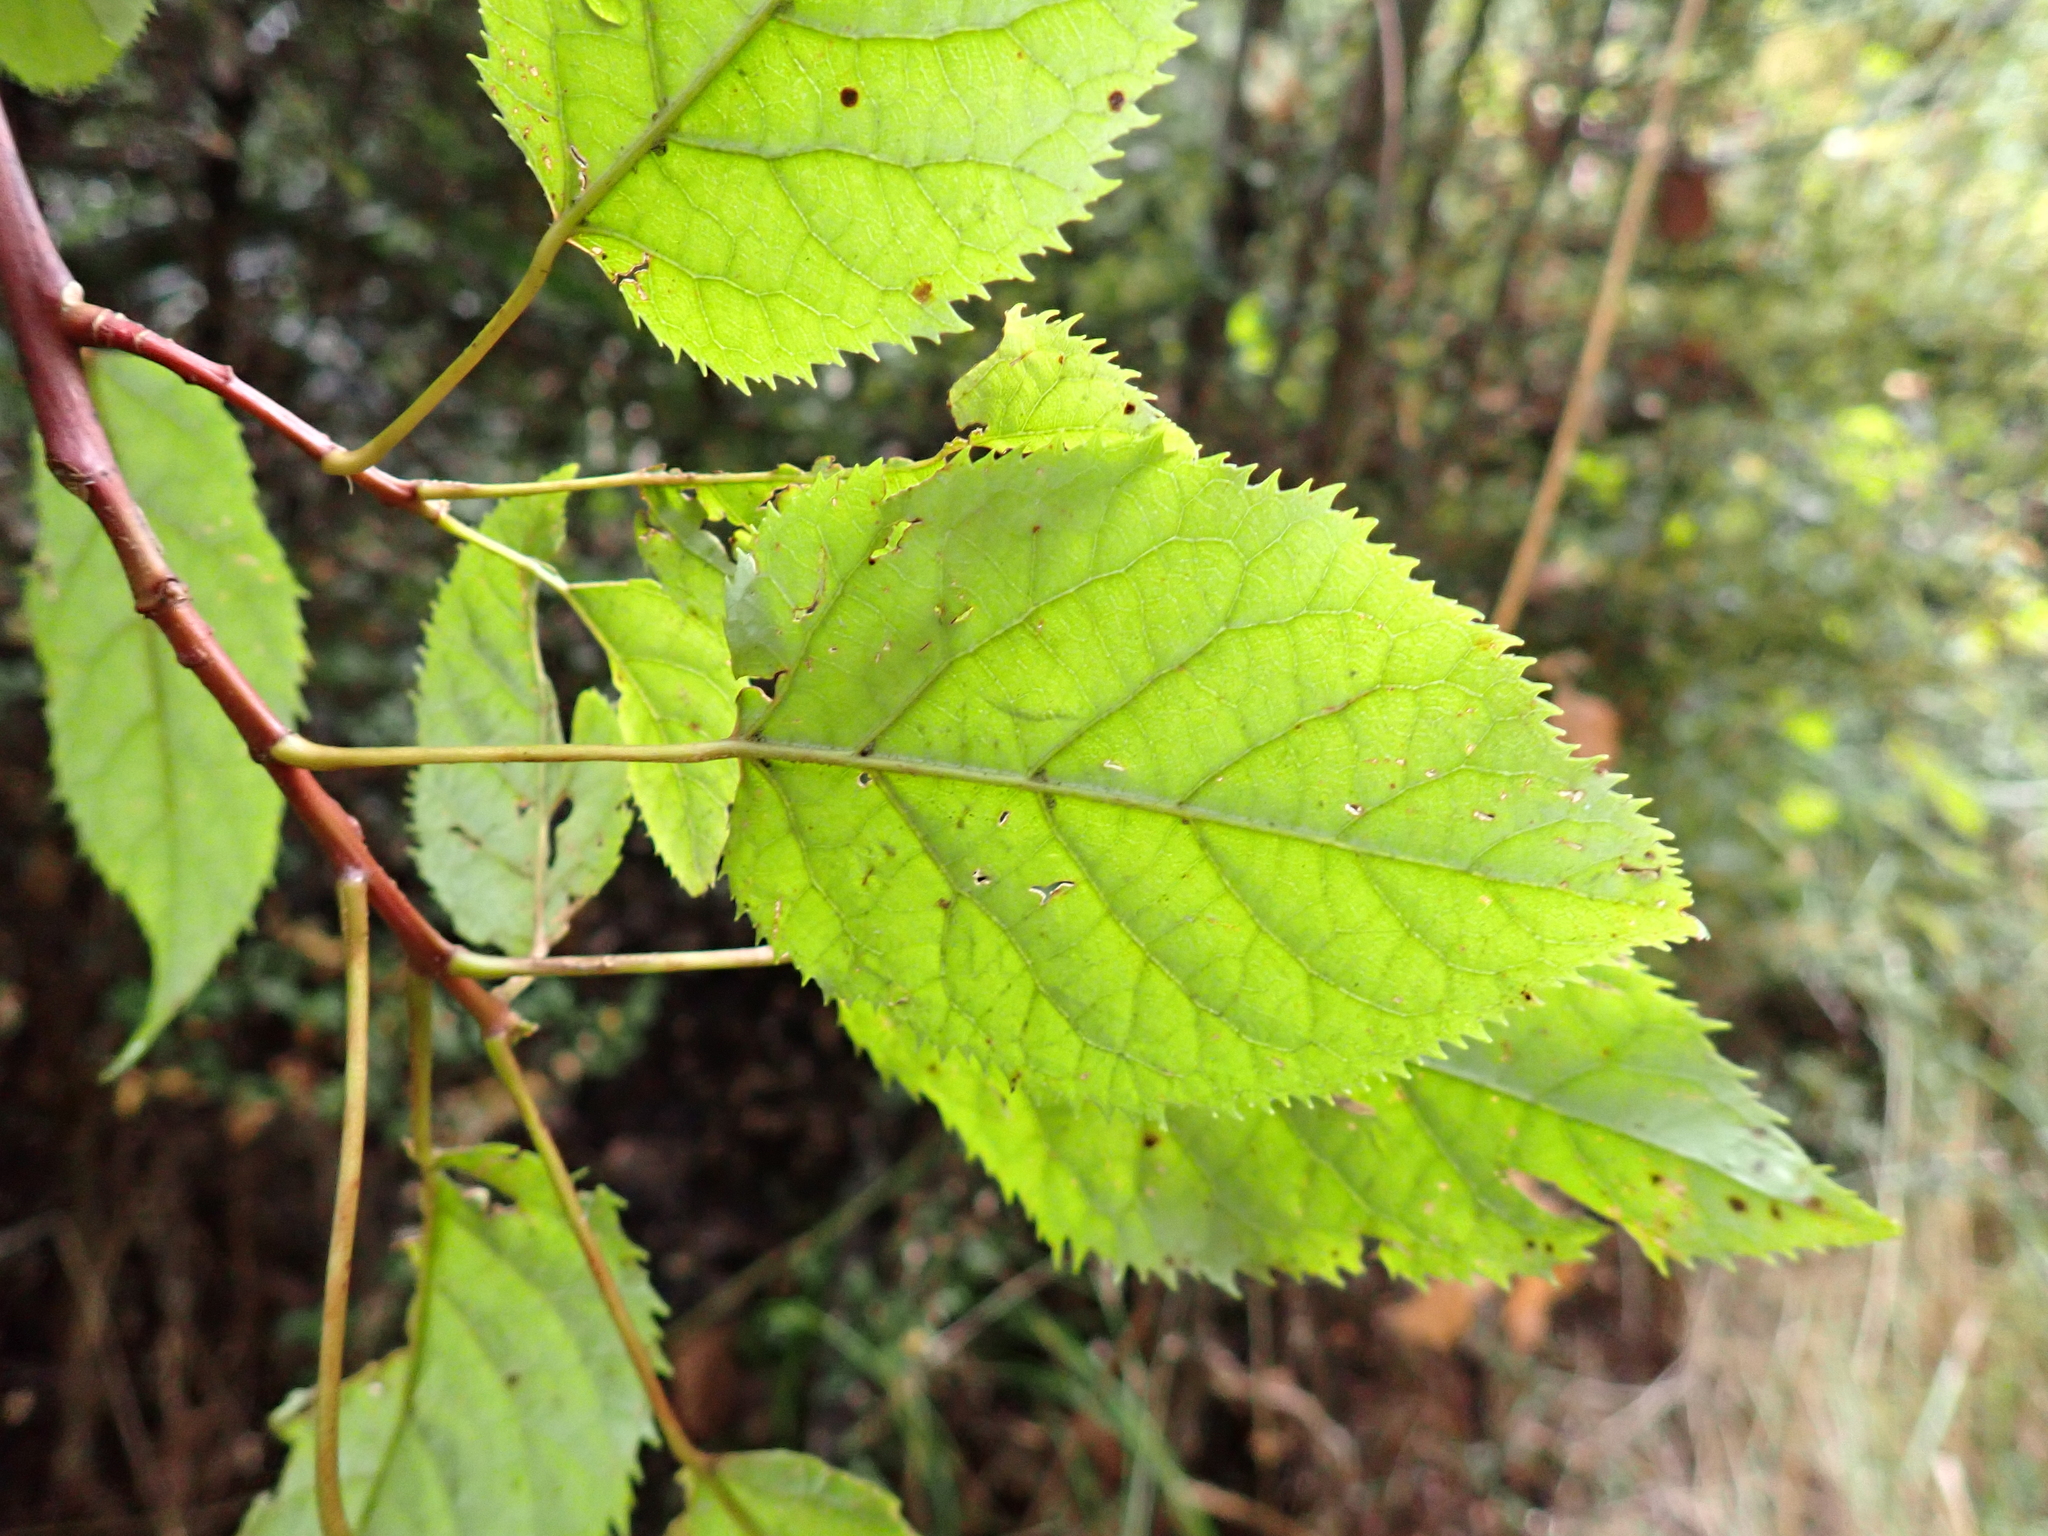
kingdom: Plantae
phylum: Tracheophyta
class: Magnoliopsida
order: Oxalidales
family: Elaeocarpaceae
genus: Aristotelia
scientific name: Aristotelia serrata
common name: New zealand wineberry
